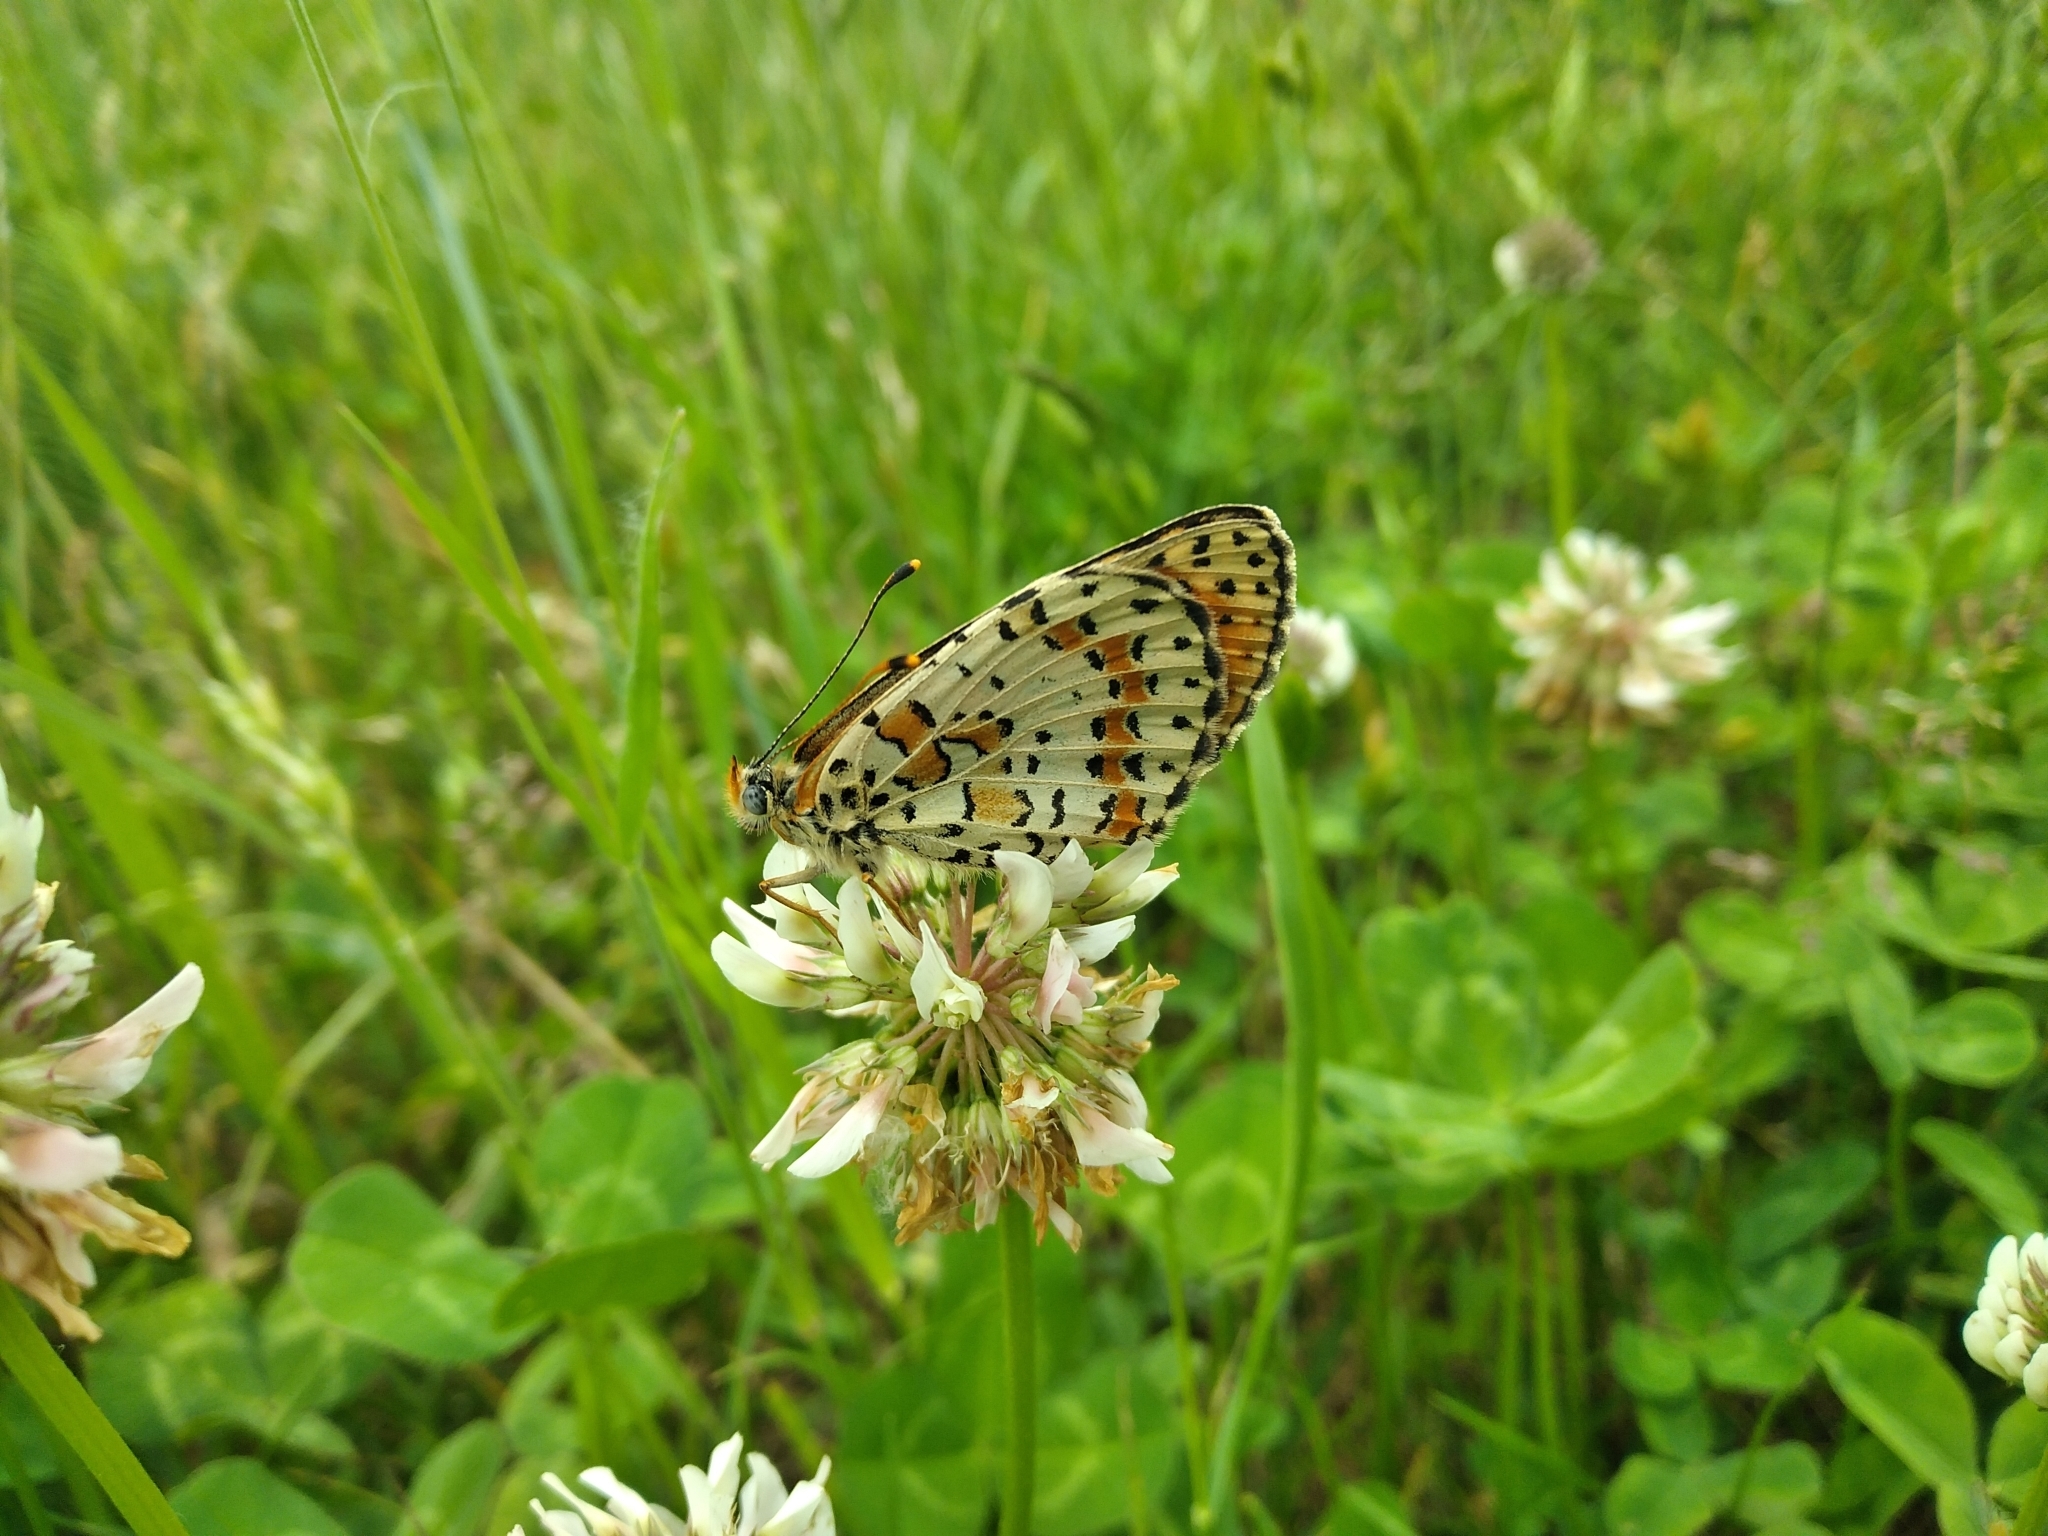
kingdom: Animalia
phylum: Arthropoda
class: Insecta
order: Lepidoptera
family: Nymphalidae
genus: Melitaea
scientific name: Melitaea didyma
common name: Spotted fritillary
